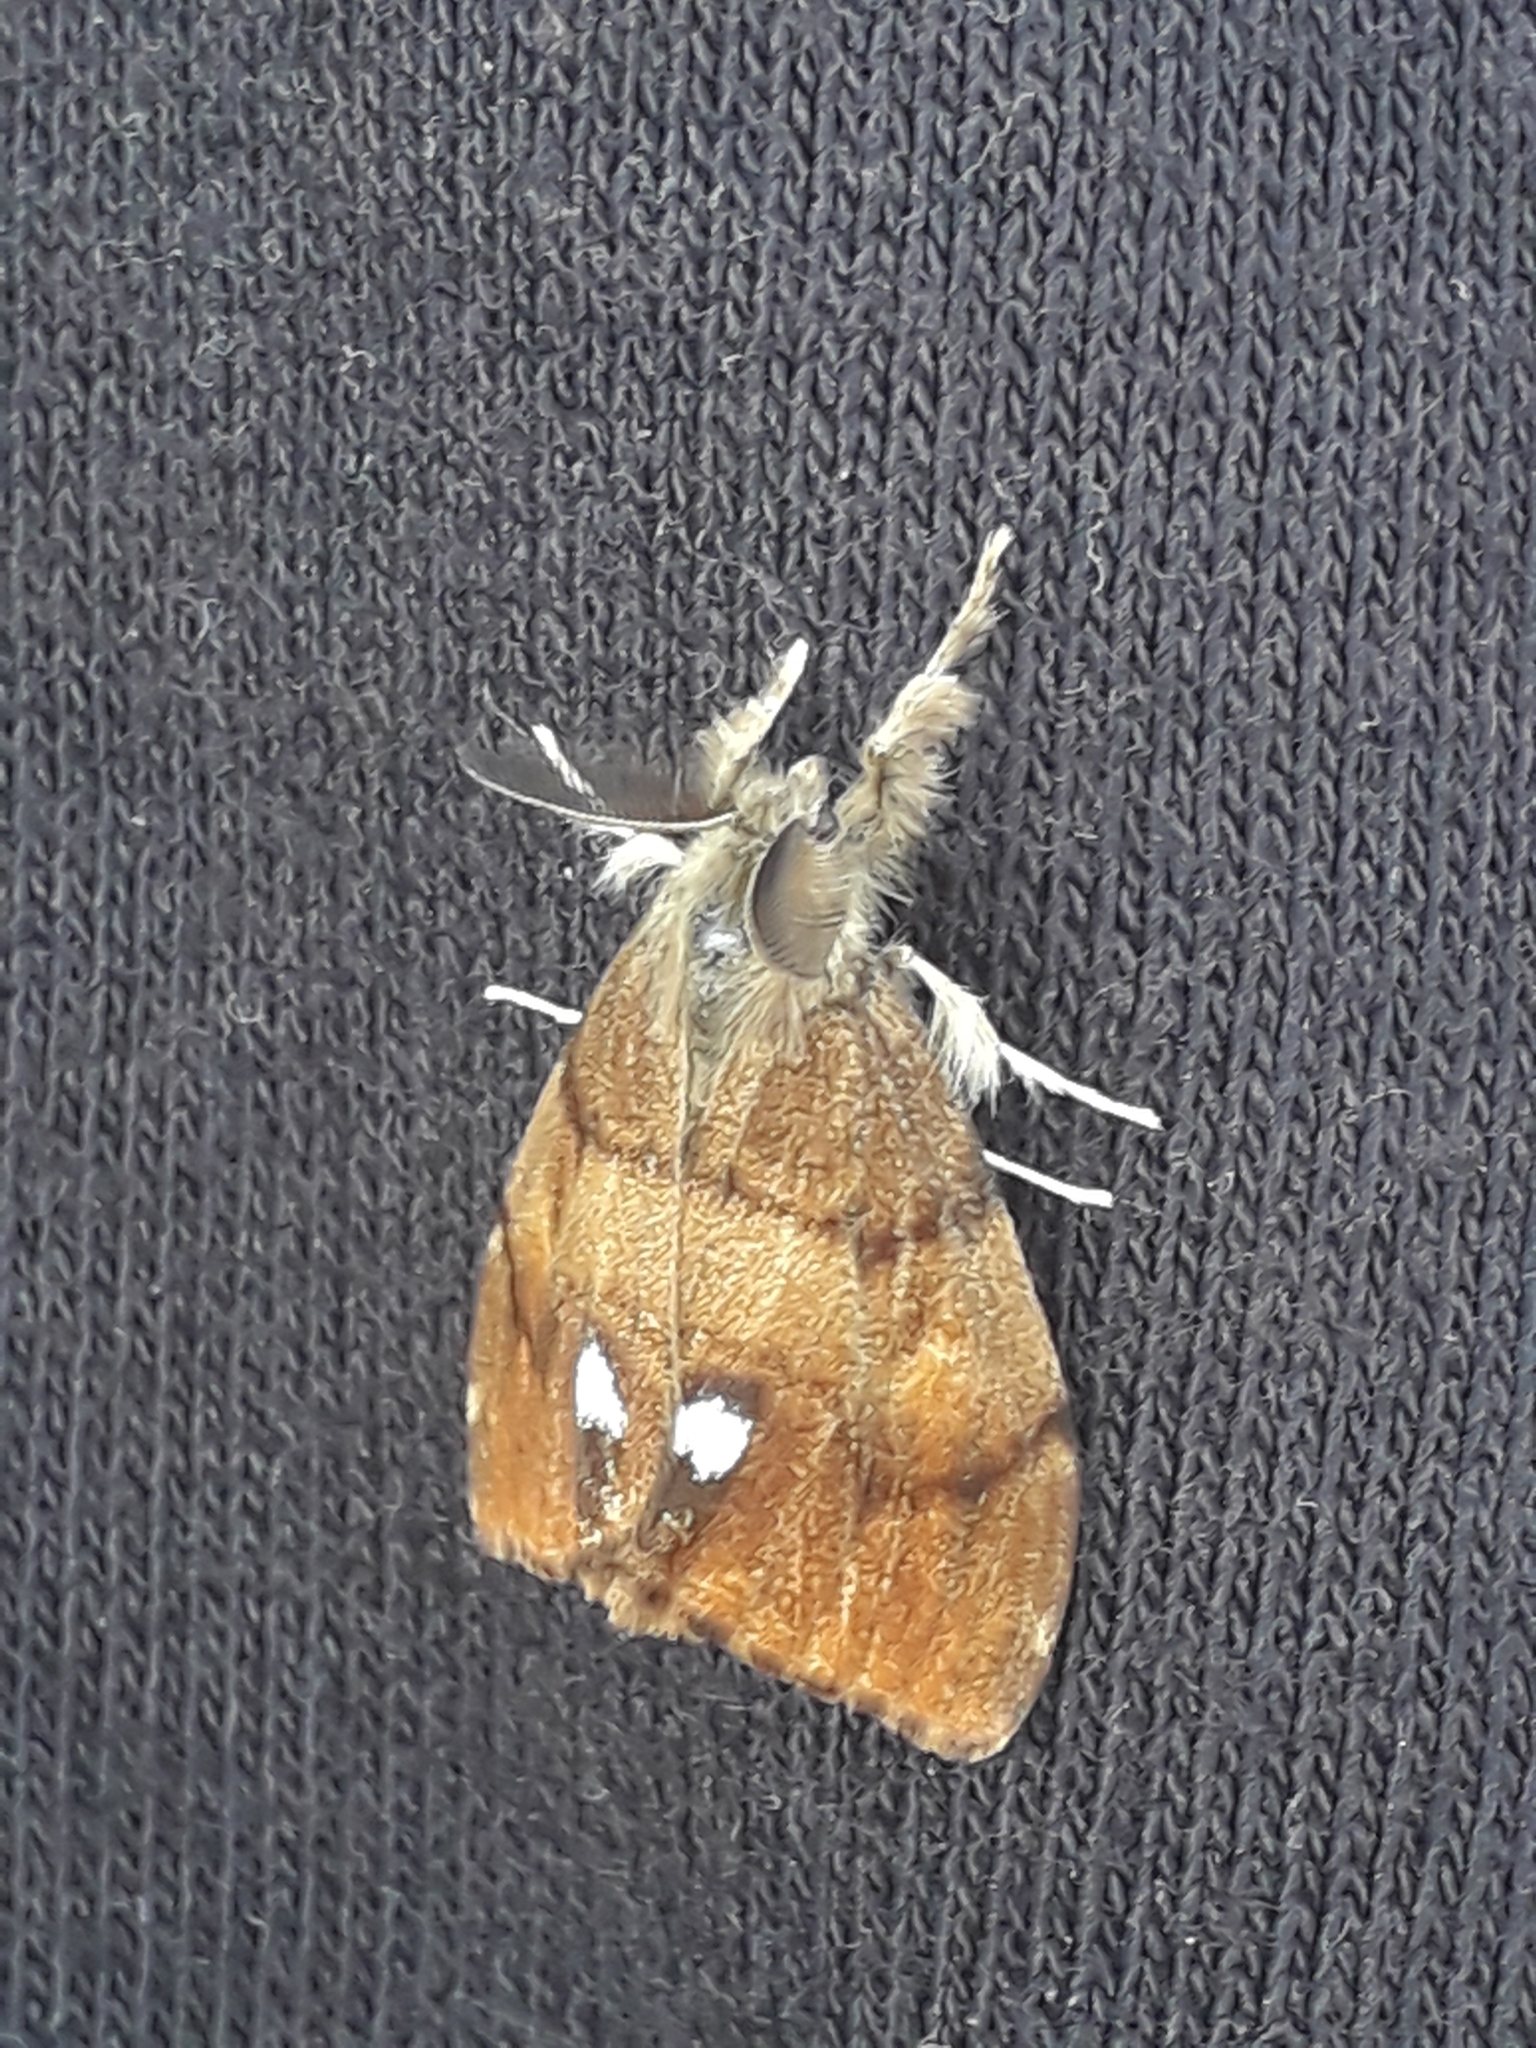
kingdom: Animalia
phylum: Arthropoda
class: Insecta
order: Lepidoptera
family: Erebidae
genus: Orgyia
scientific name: Orgyia antiqua
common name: Vapourer
